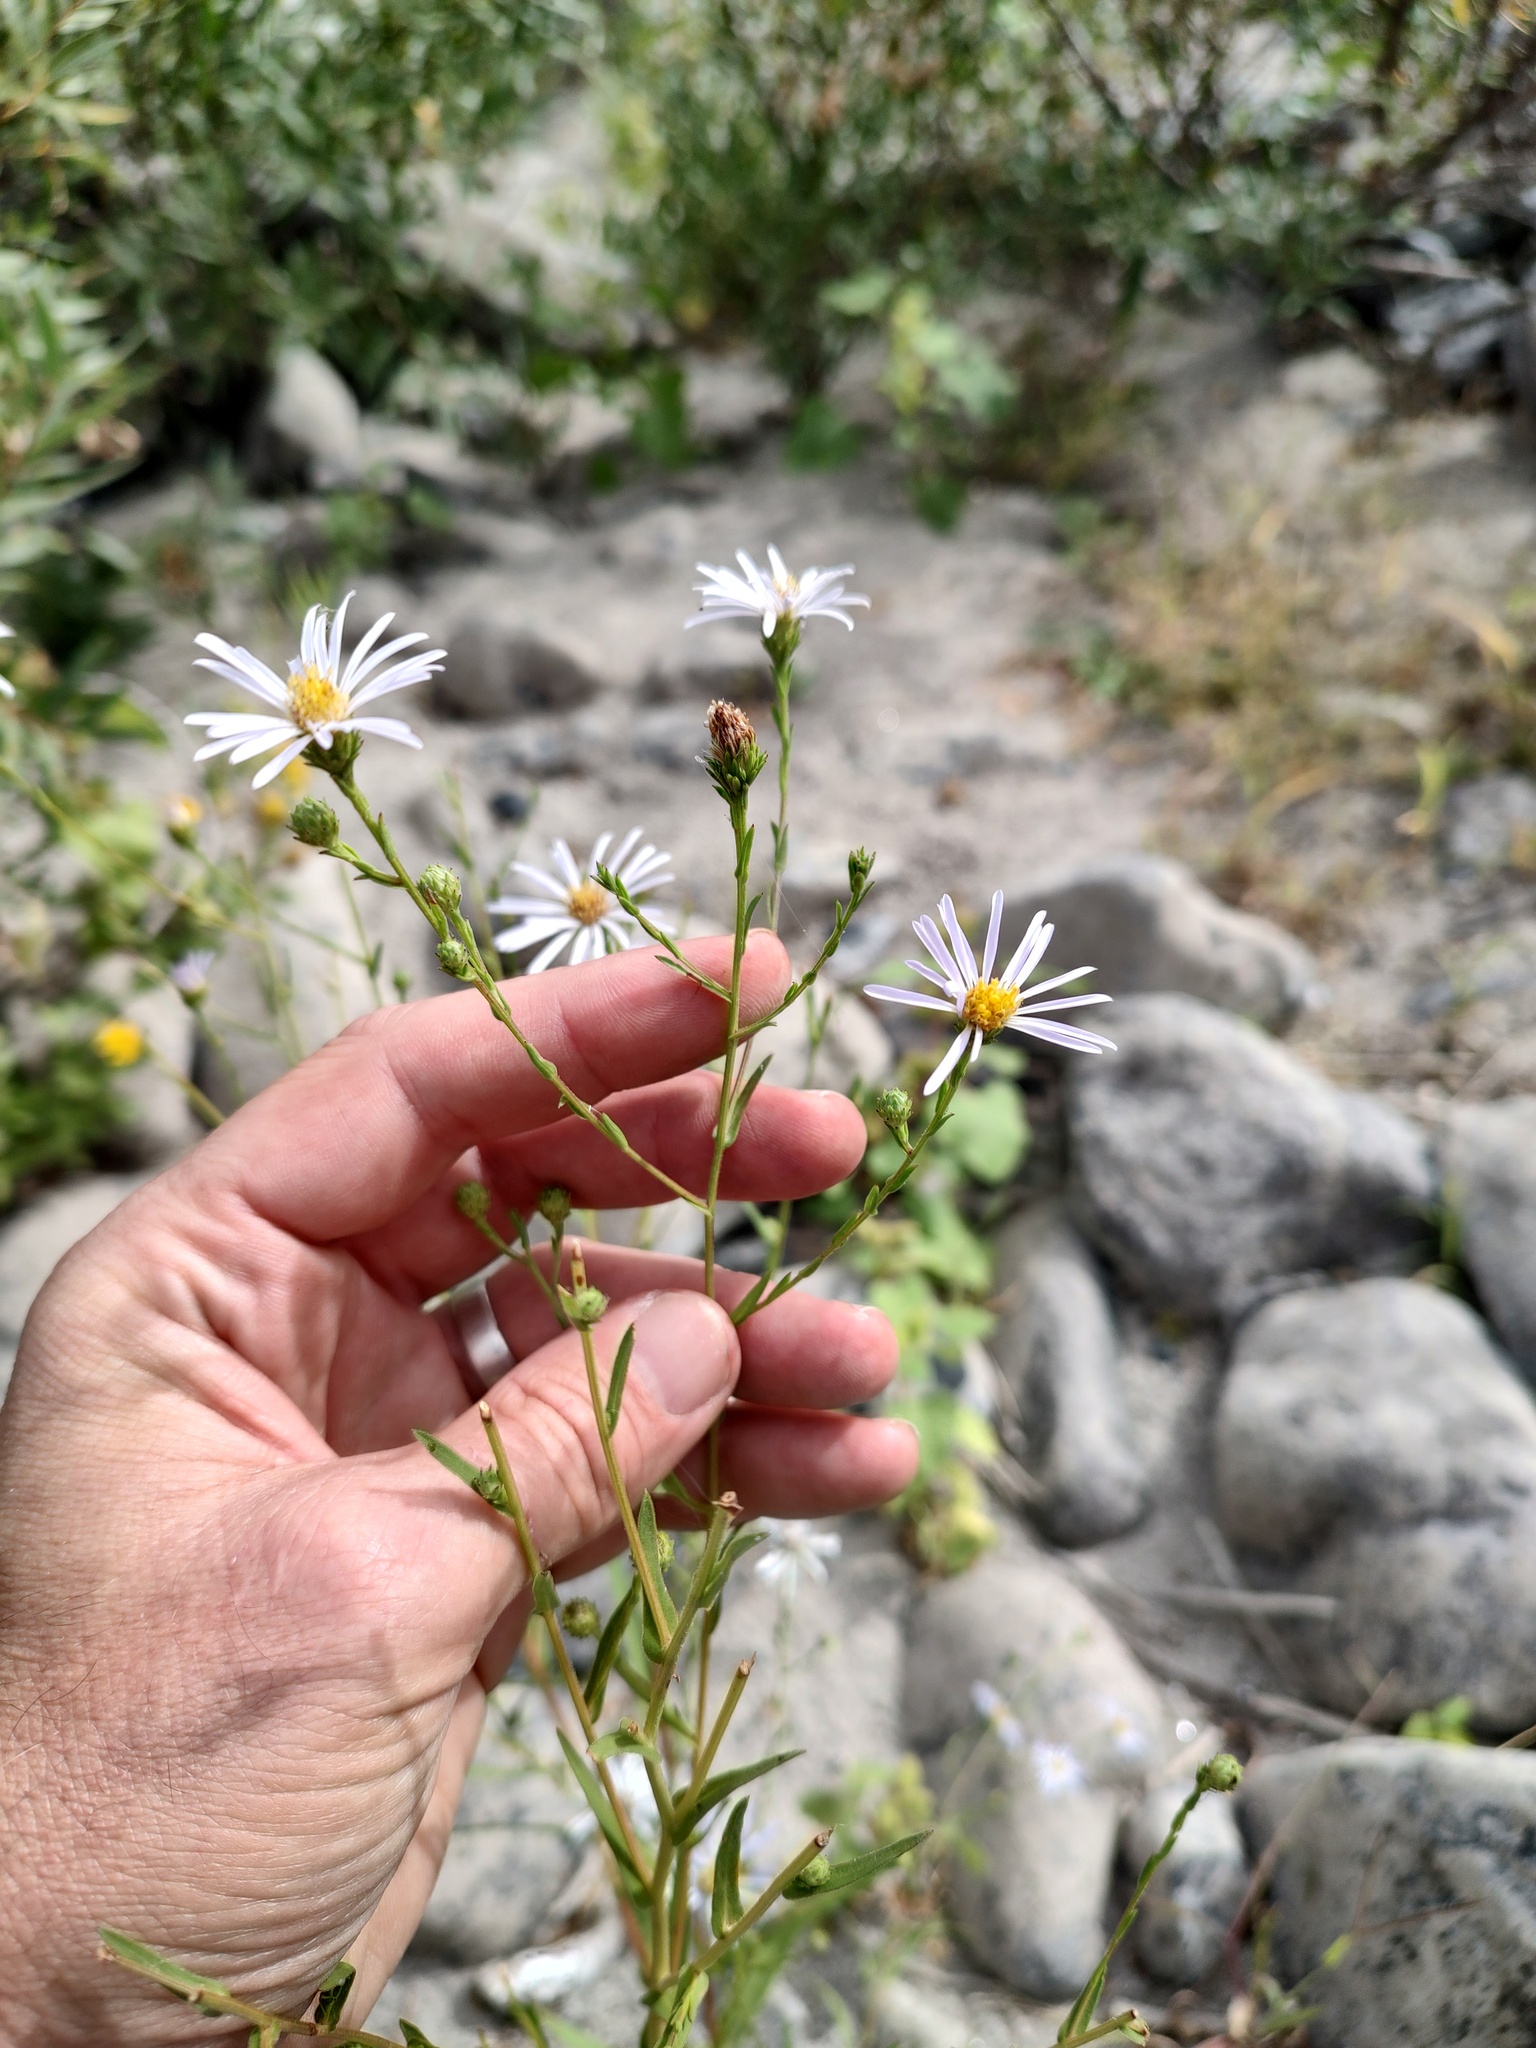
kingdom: Plantae
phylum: Tracheophyta
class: Magnoliopsida
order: Asterales
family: Asteraceae
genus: Symphyotrichum
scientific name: Symphyotrichum spathulatum
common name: Western mountain aster
